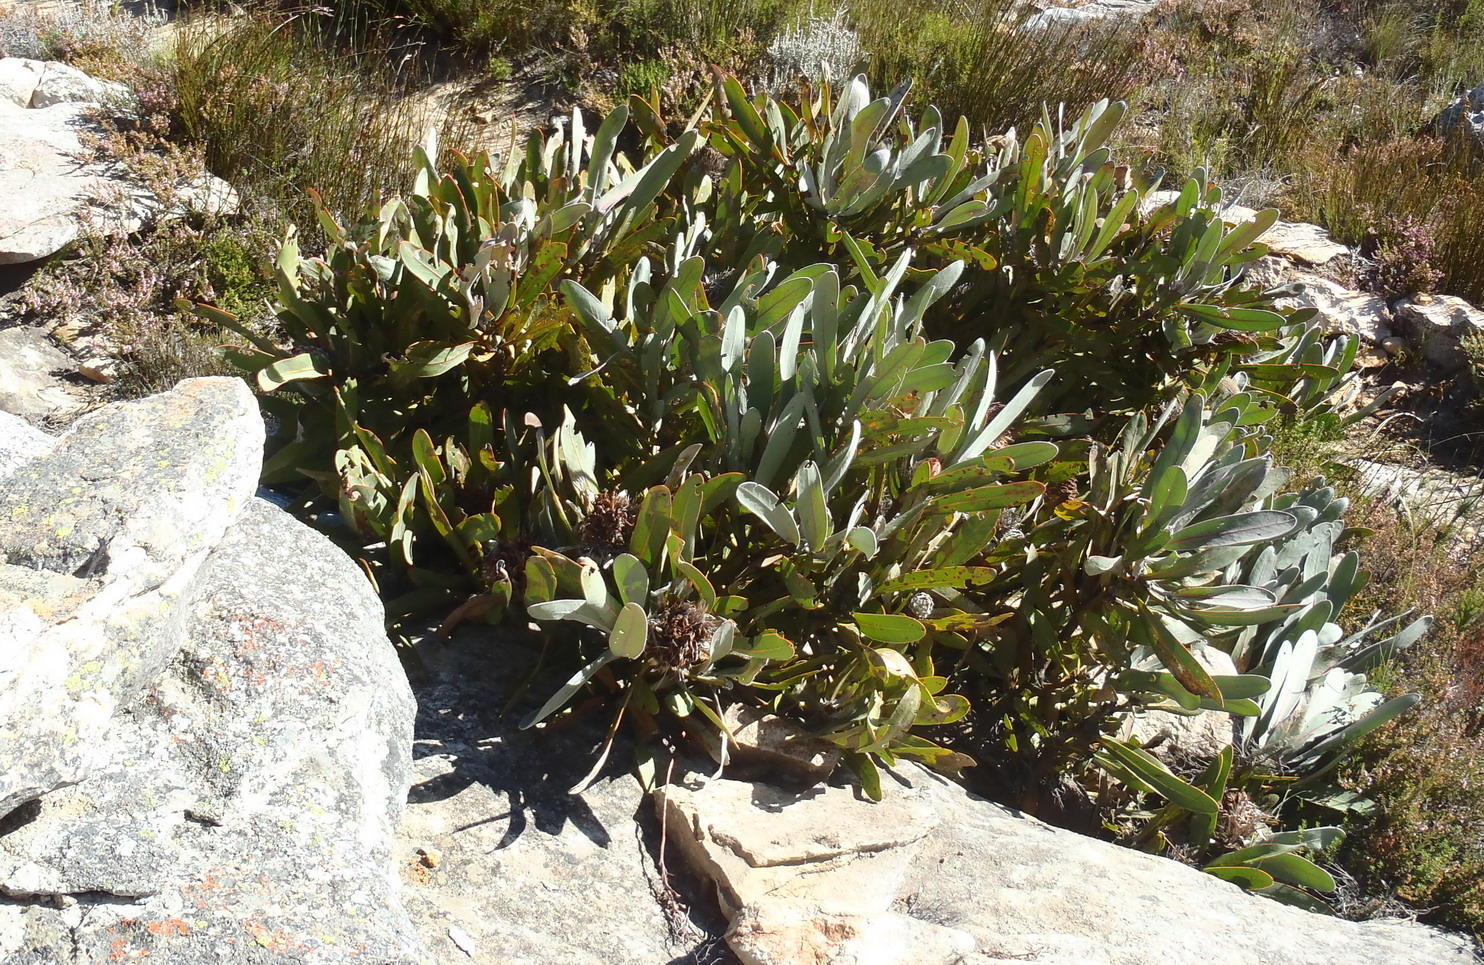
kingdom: Plantae
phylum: Tracheophyta
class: Magnoliopsida
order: Proteales
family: Proteaceae
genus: Protea
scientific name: Protea lorifolia
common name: Strap-leaved protea
